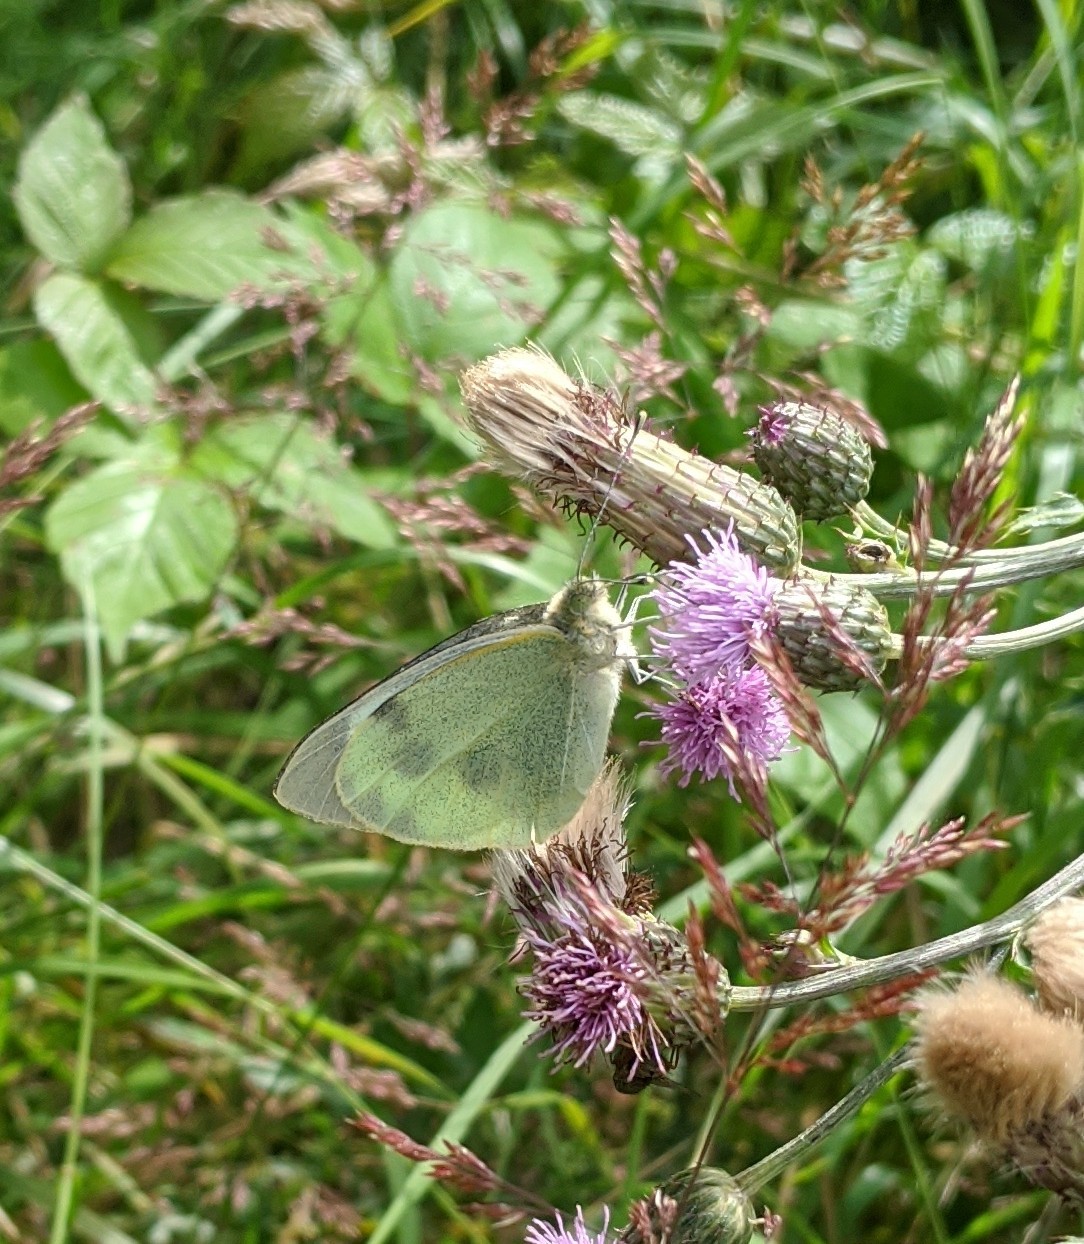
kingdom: Animalia
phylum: Arthropoda
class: Insecta
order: Lepidoptera
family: Pieridae
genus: Pieris
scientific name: Pieris brassicae
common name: Large white
